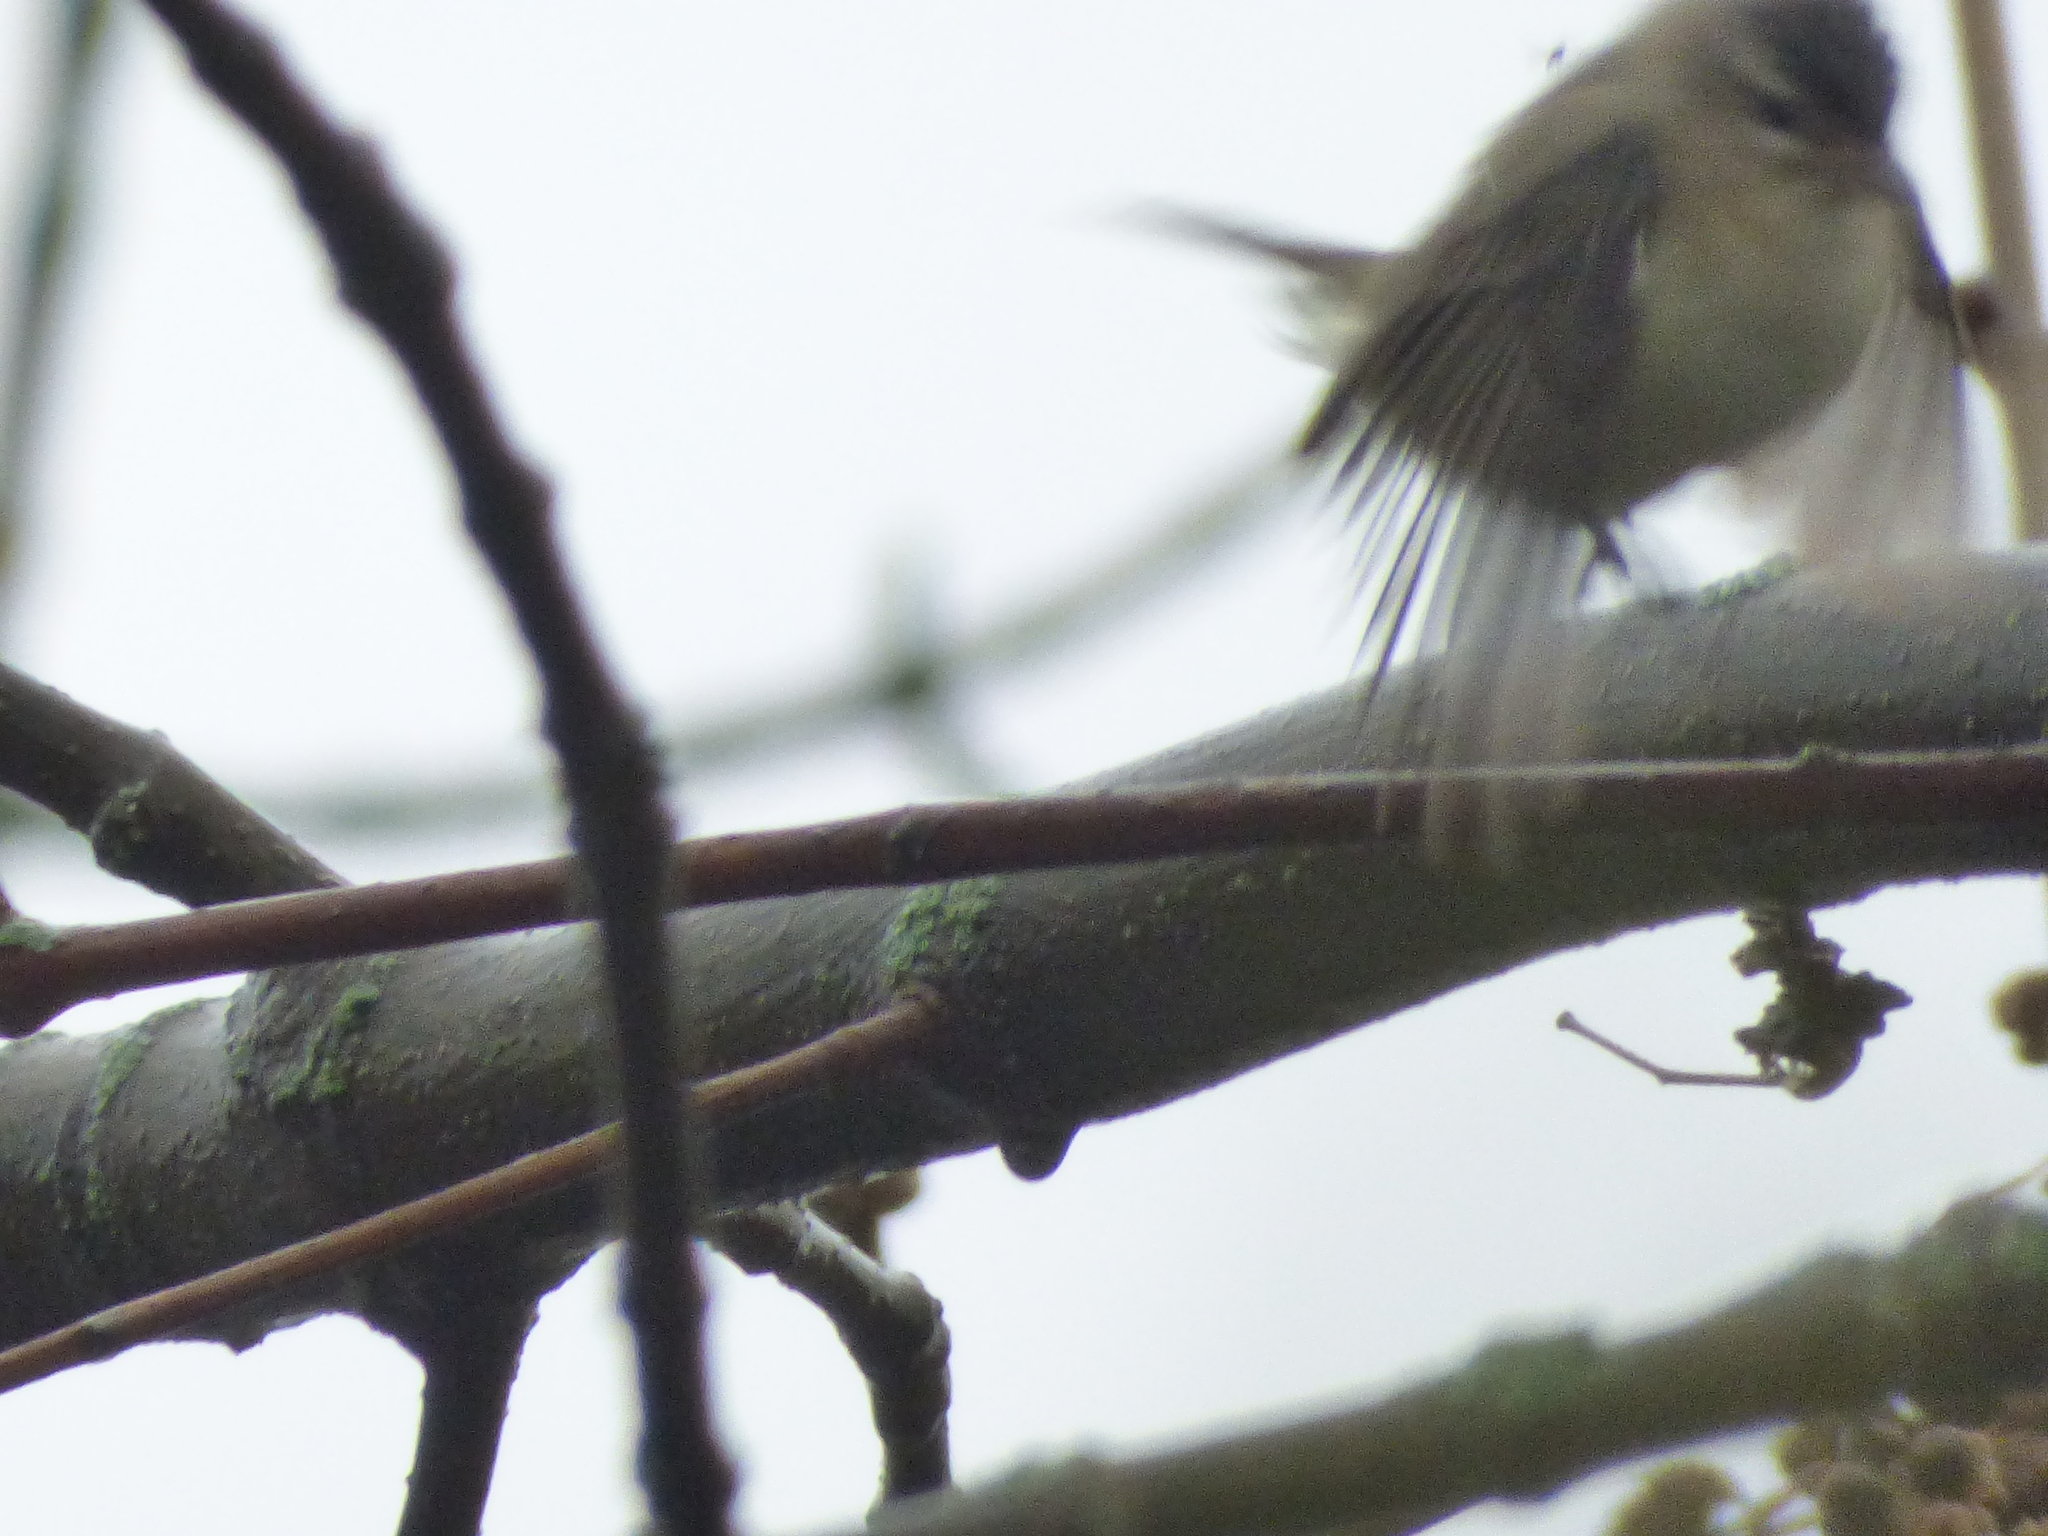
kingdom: Animalia
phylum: Chordata
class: Aves
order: Passeriformes
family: Vireonidae
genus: Vireo
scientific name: Vireo olivaceus
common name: Red-eyed vireo
